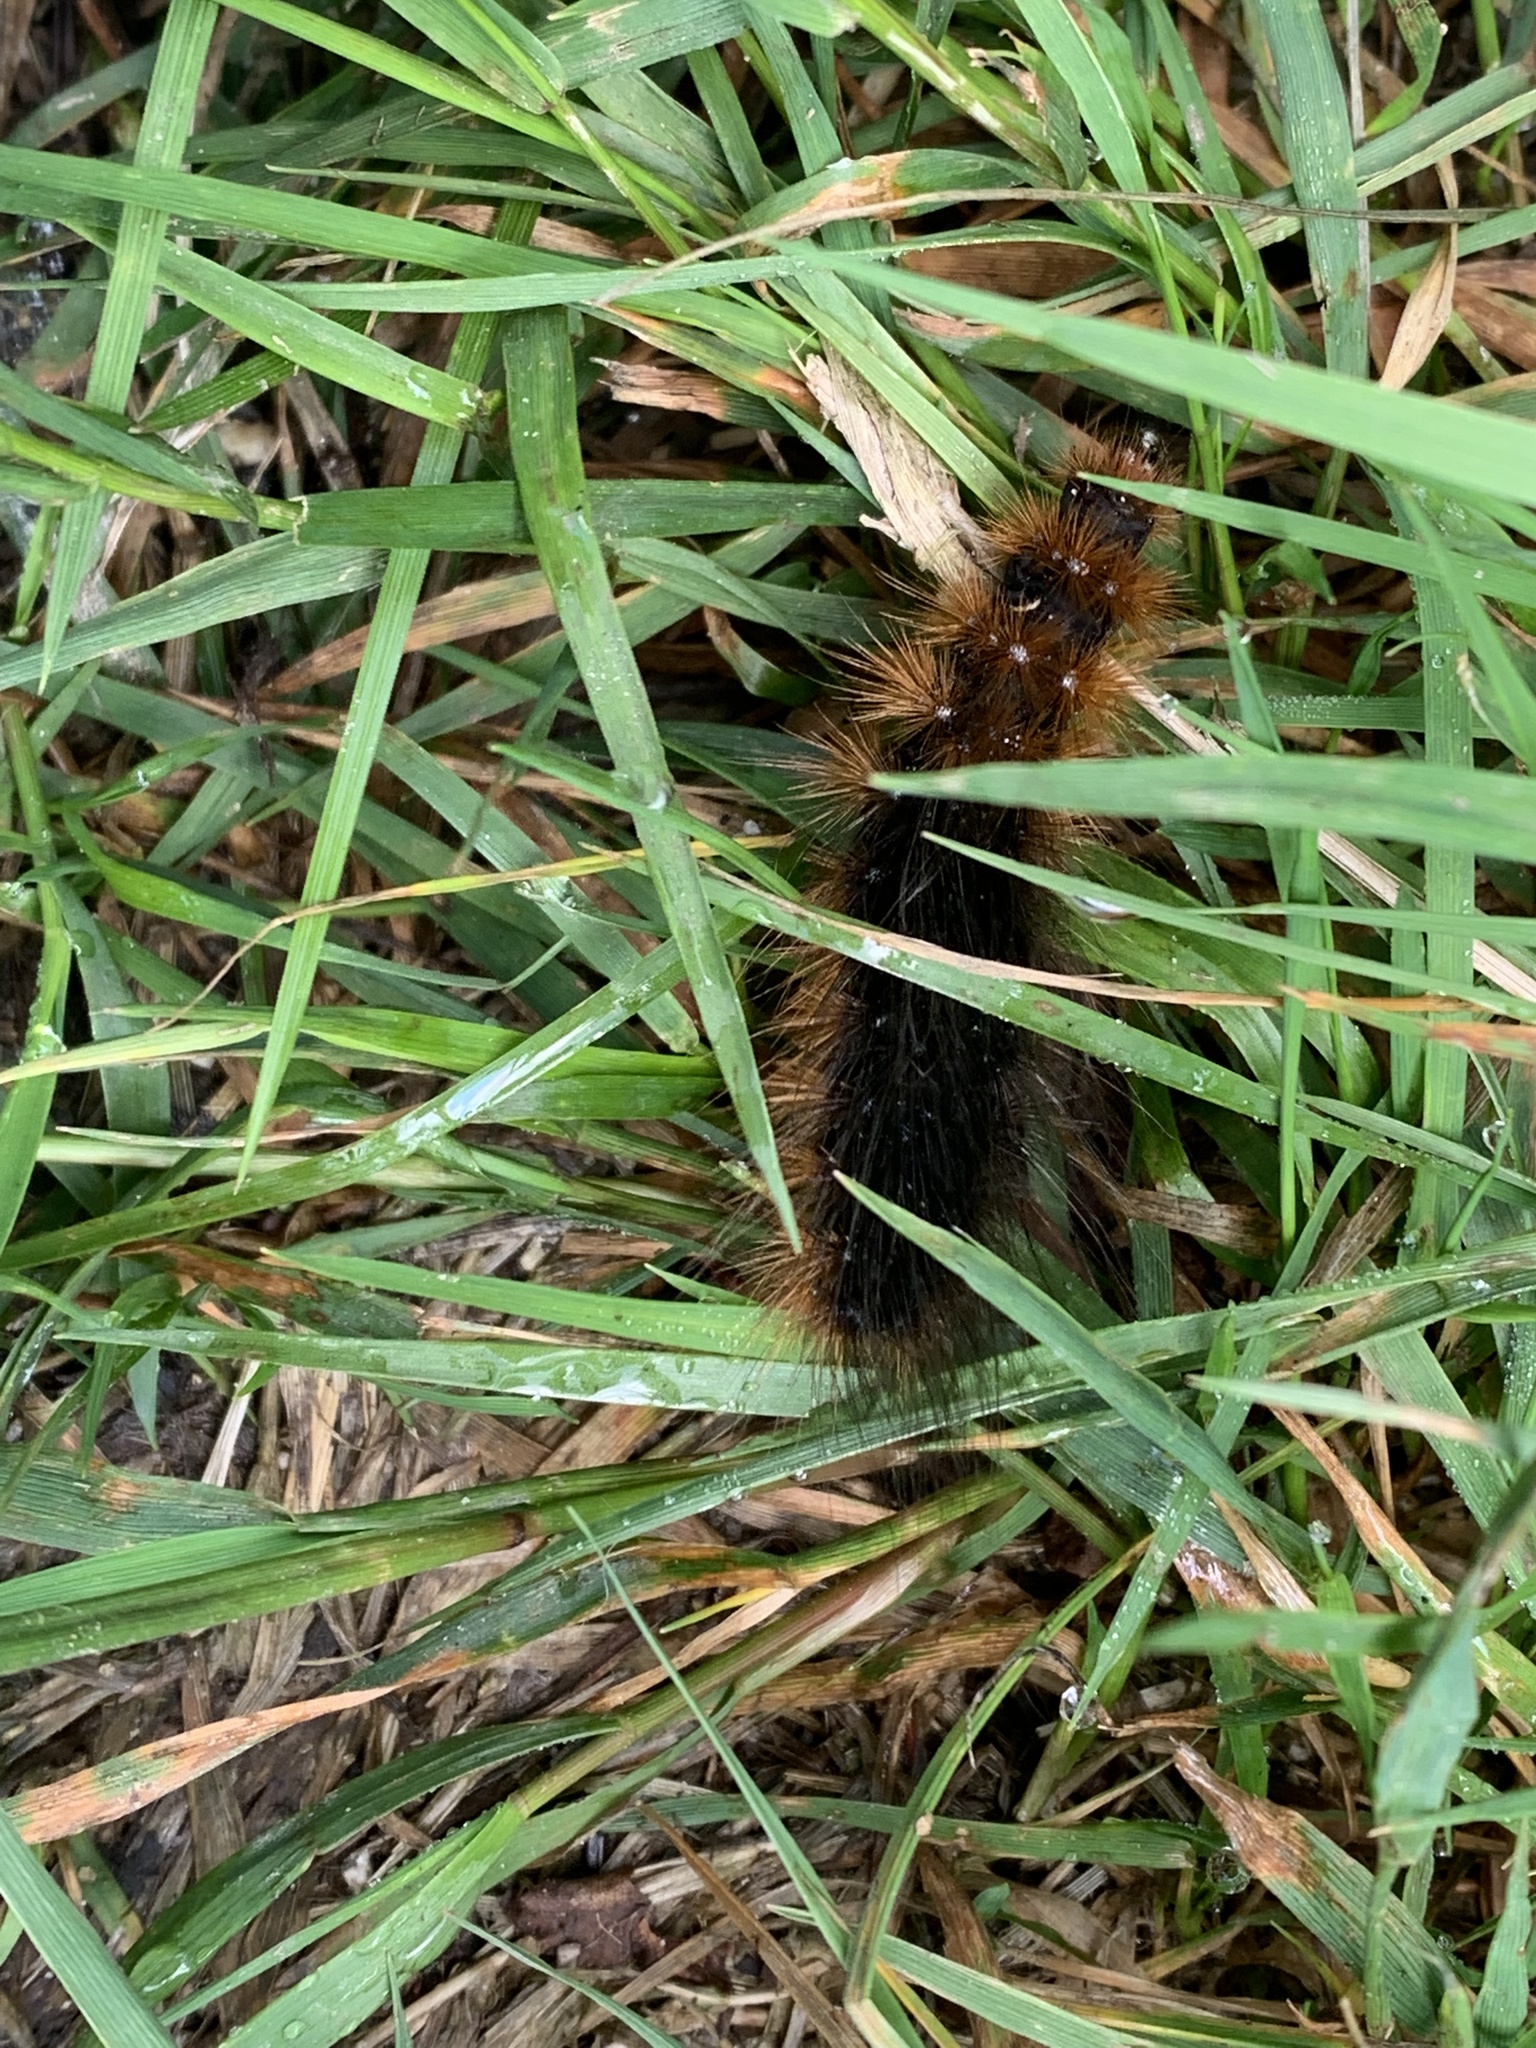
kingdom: Animalia
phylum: Arthropoda
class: Insecta
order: Lepidoptera
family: Erebidae
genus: Arctia
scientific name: Arctia caja
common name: Garden tiger
